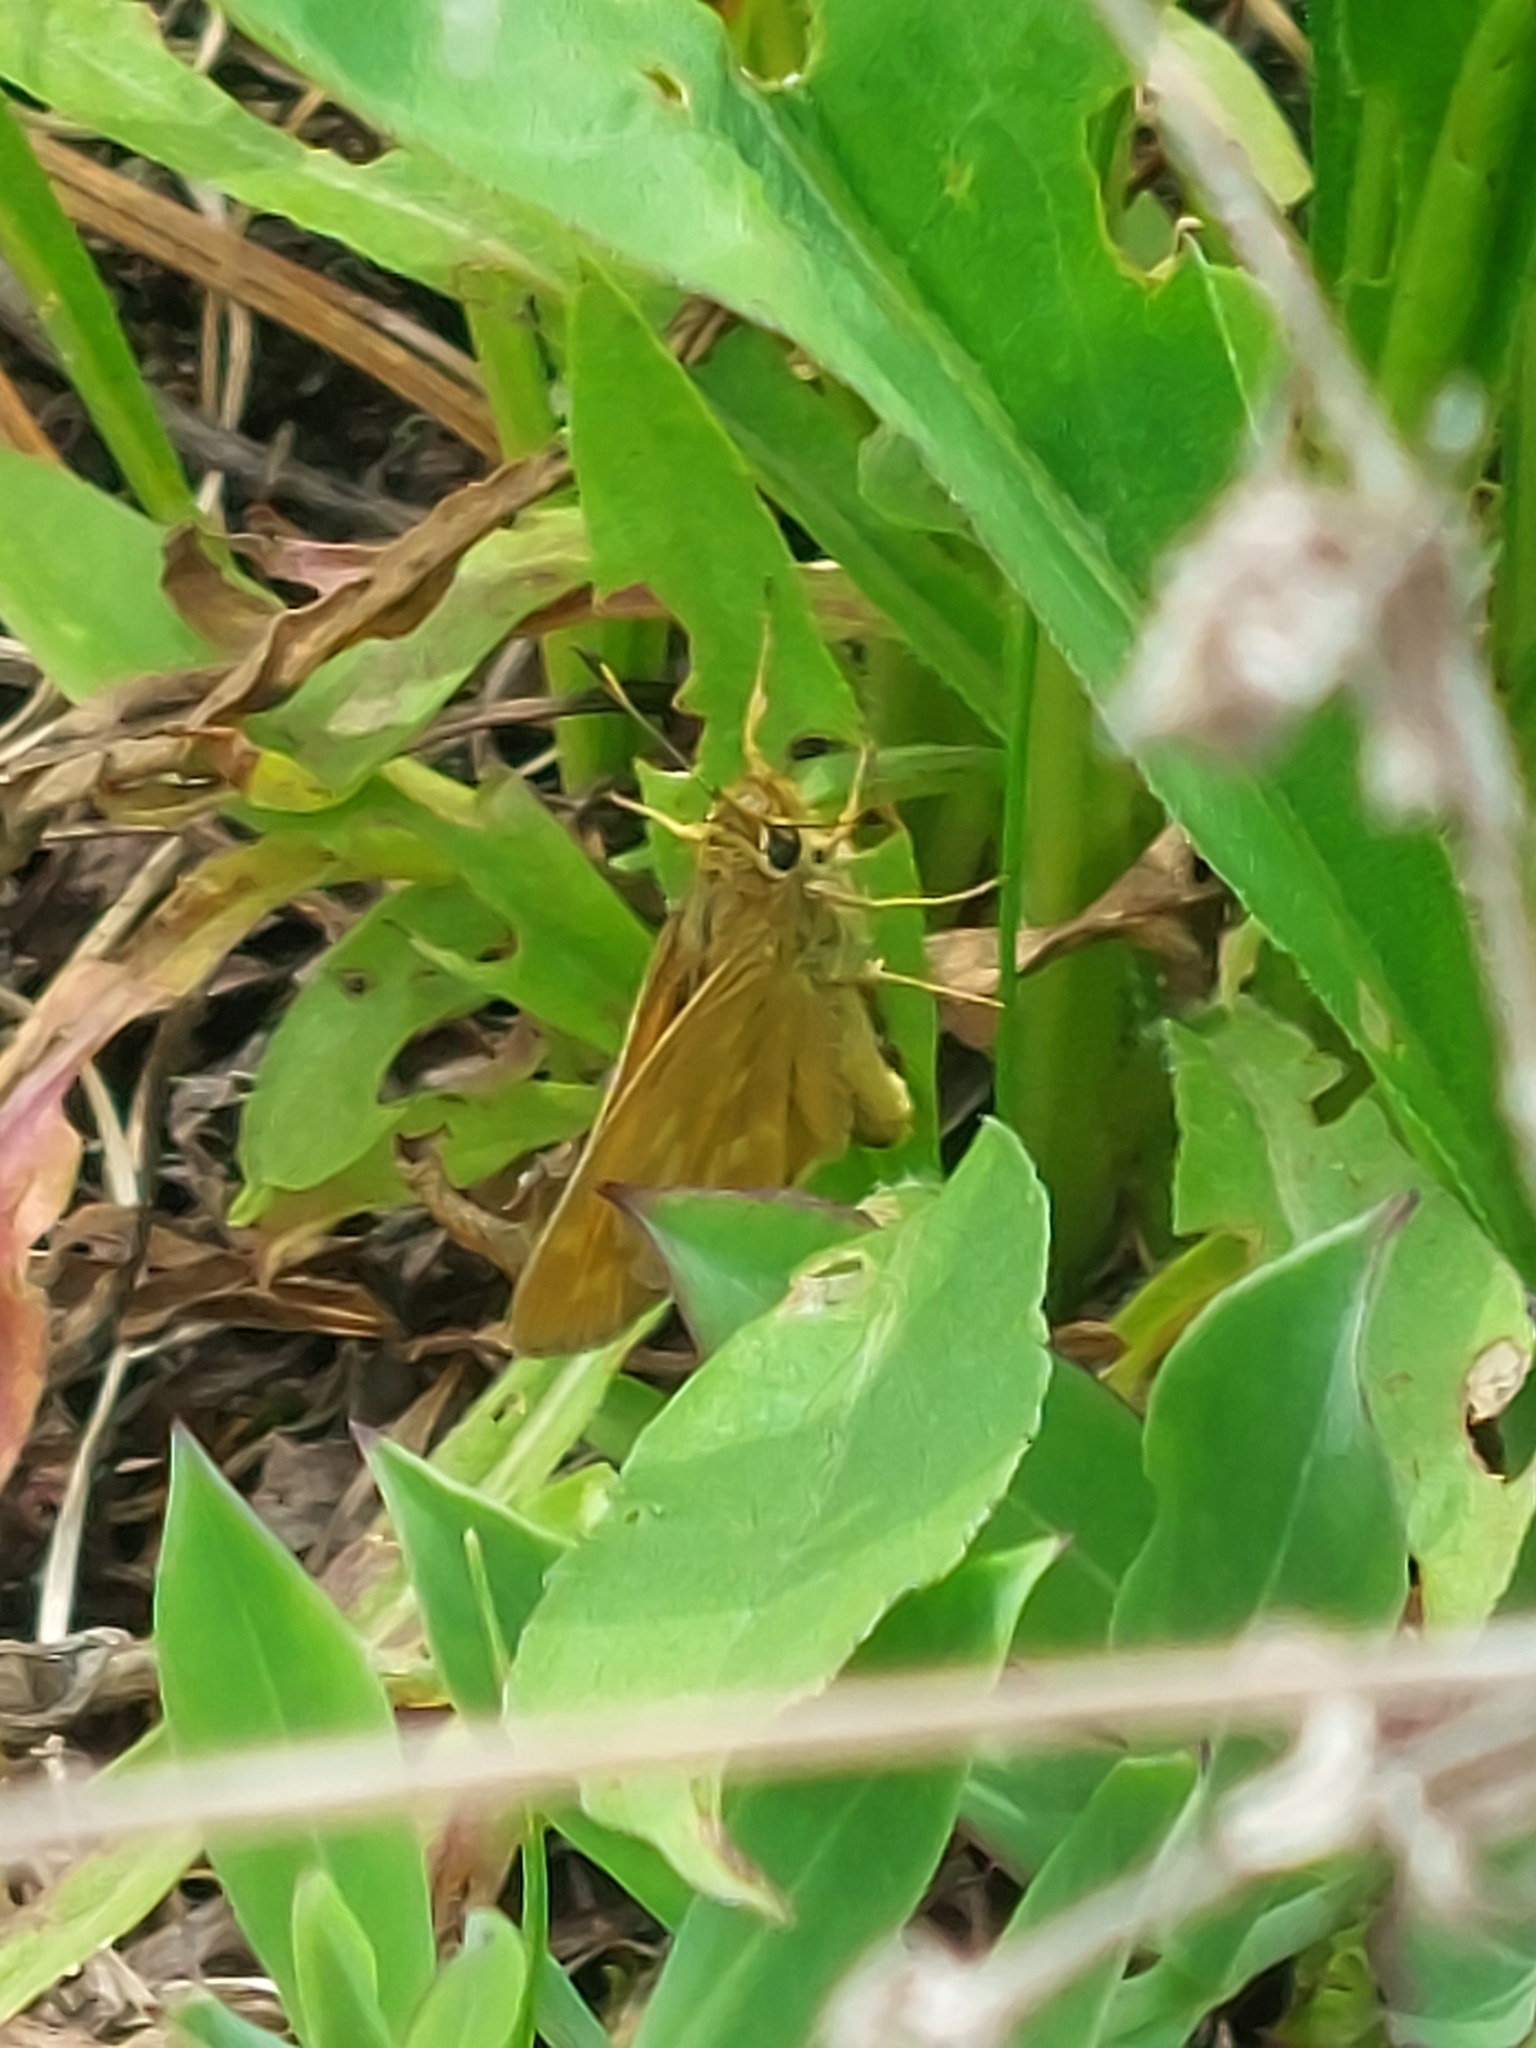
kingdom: Animalia
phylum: Arthropoda
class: Insecta
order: Lepidoptera
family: Hesperiidae
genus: Hesperia
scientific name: Hesperia sassacus
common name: Indian skipper
